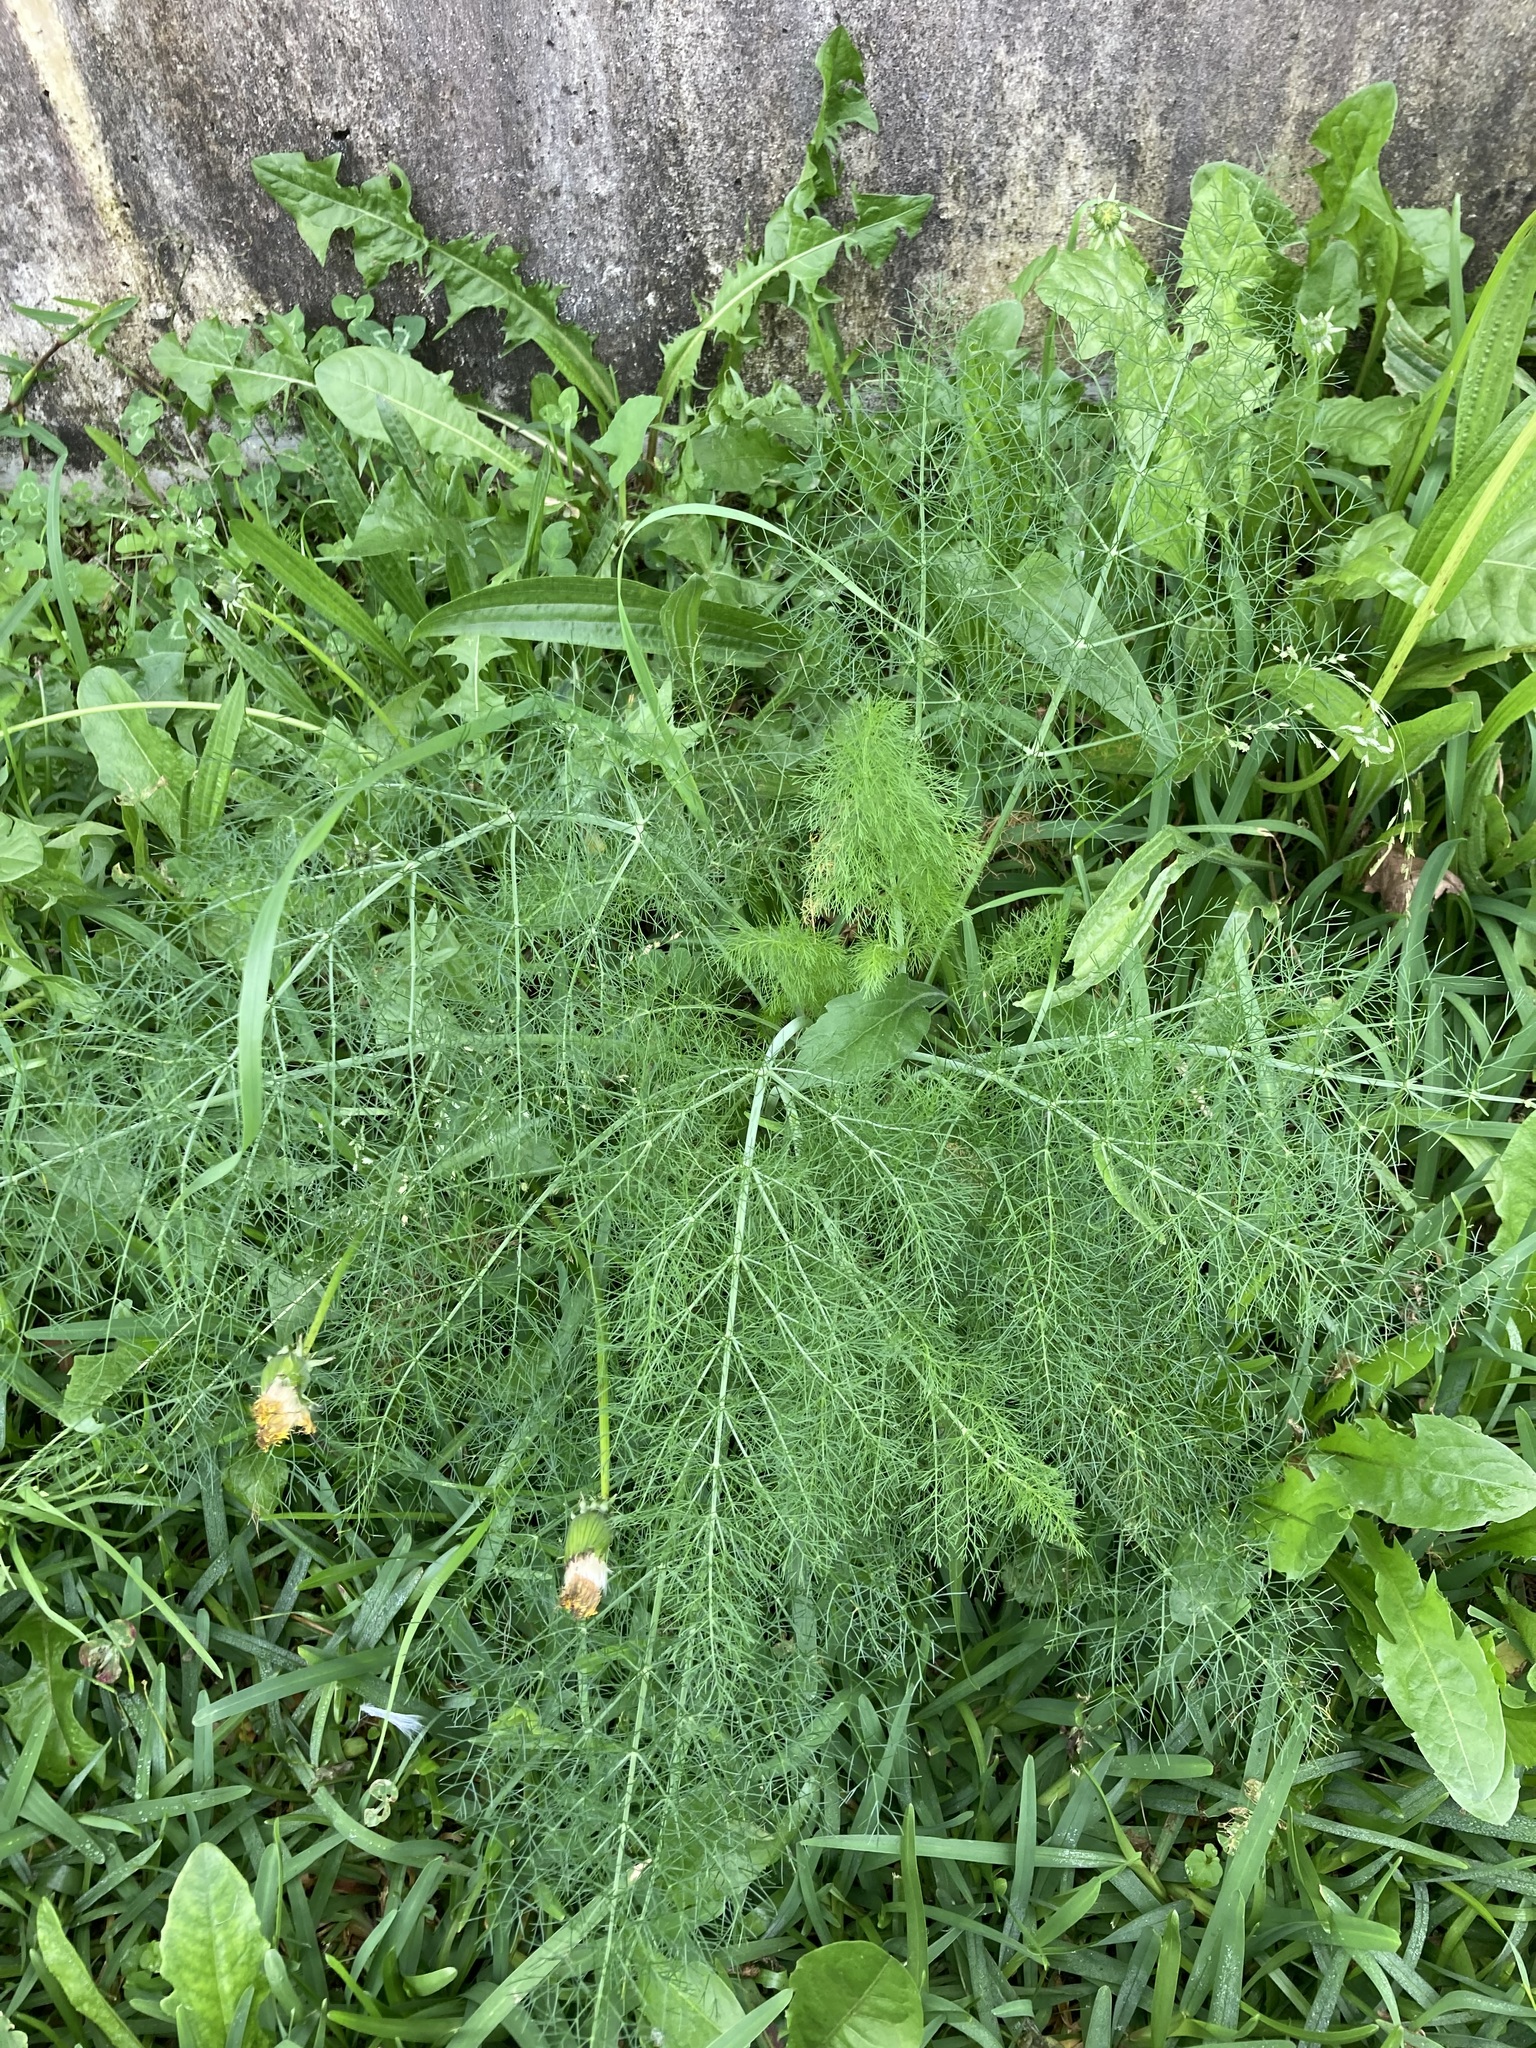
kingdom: Plantae
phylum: Tracheophyta
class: Magnoliopsida
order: Apiales
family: Apiaceae
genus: Foeniculum
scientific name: Foeniculum vulgare
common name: Fennel
